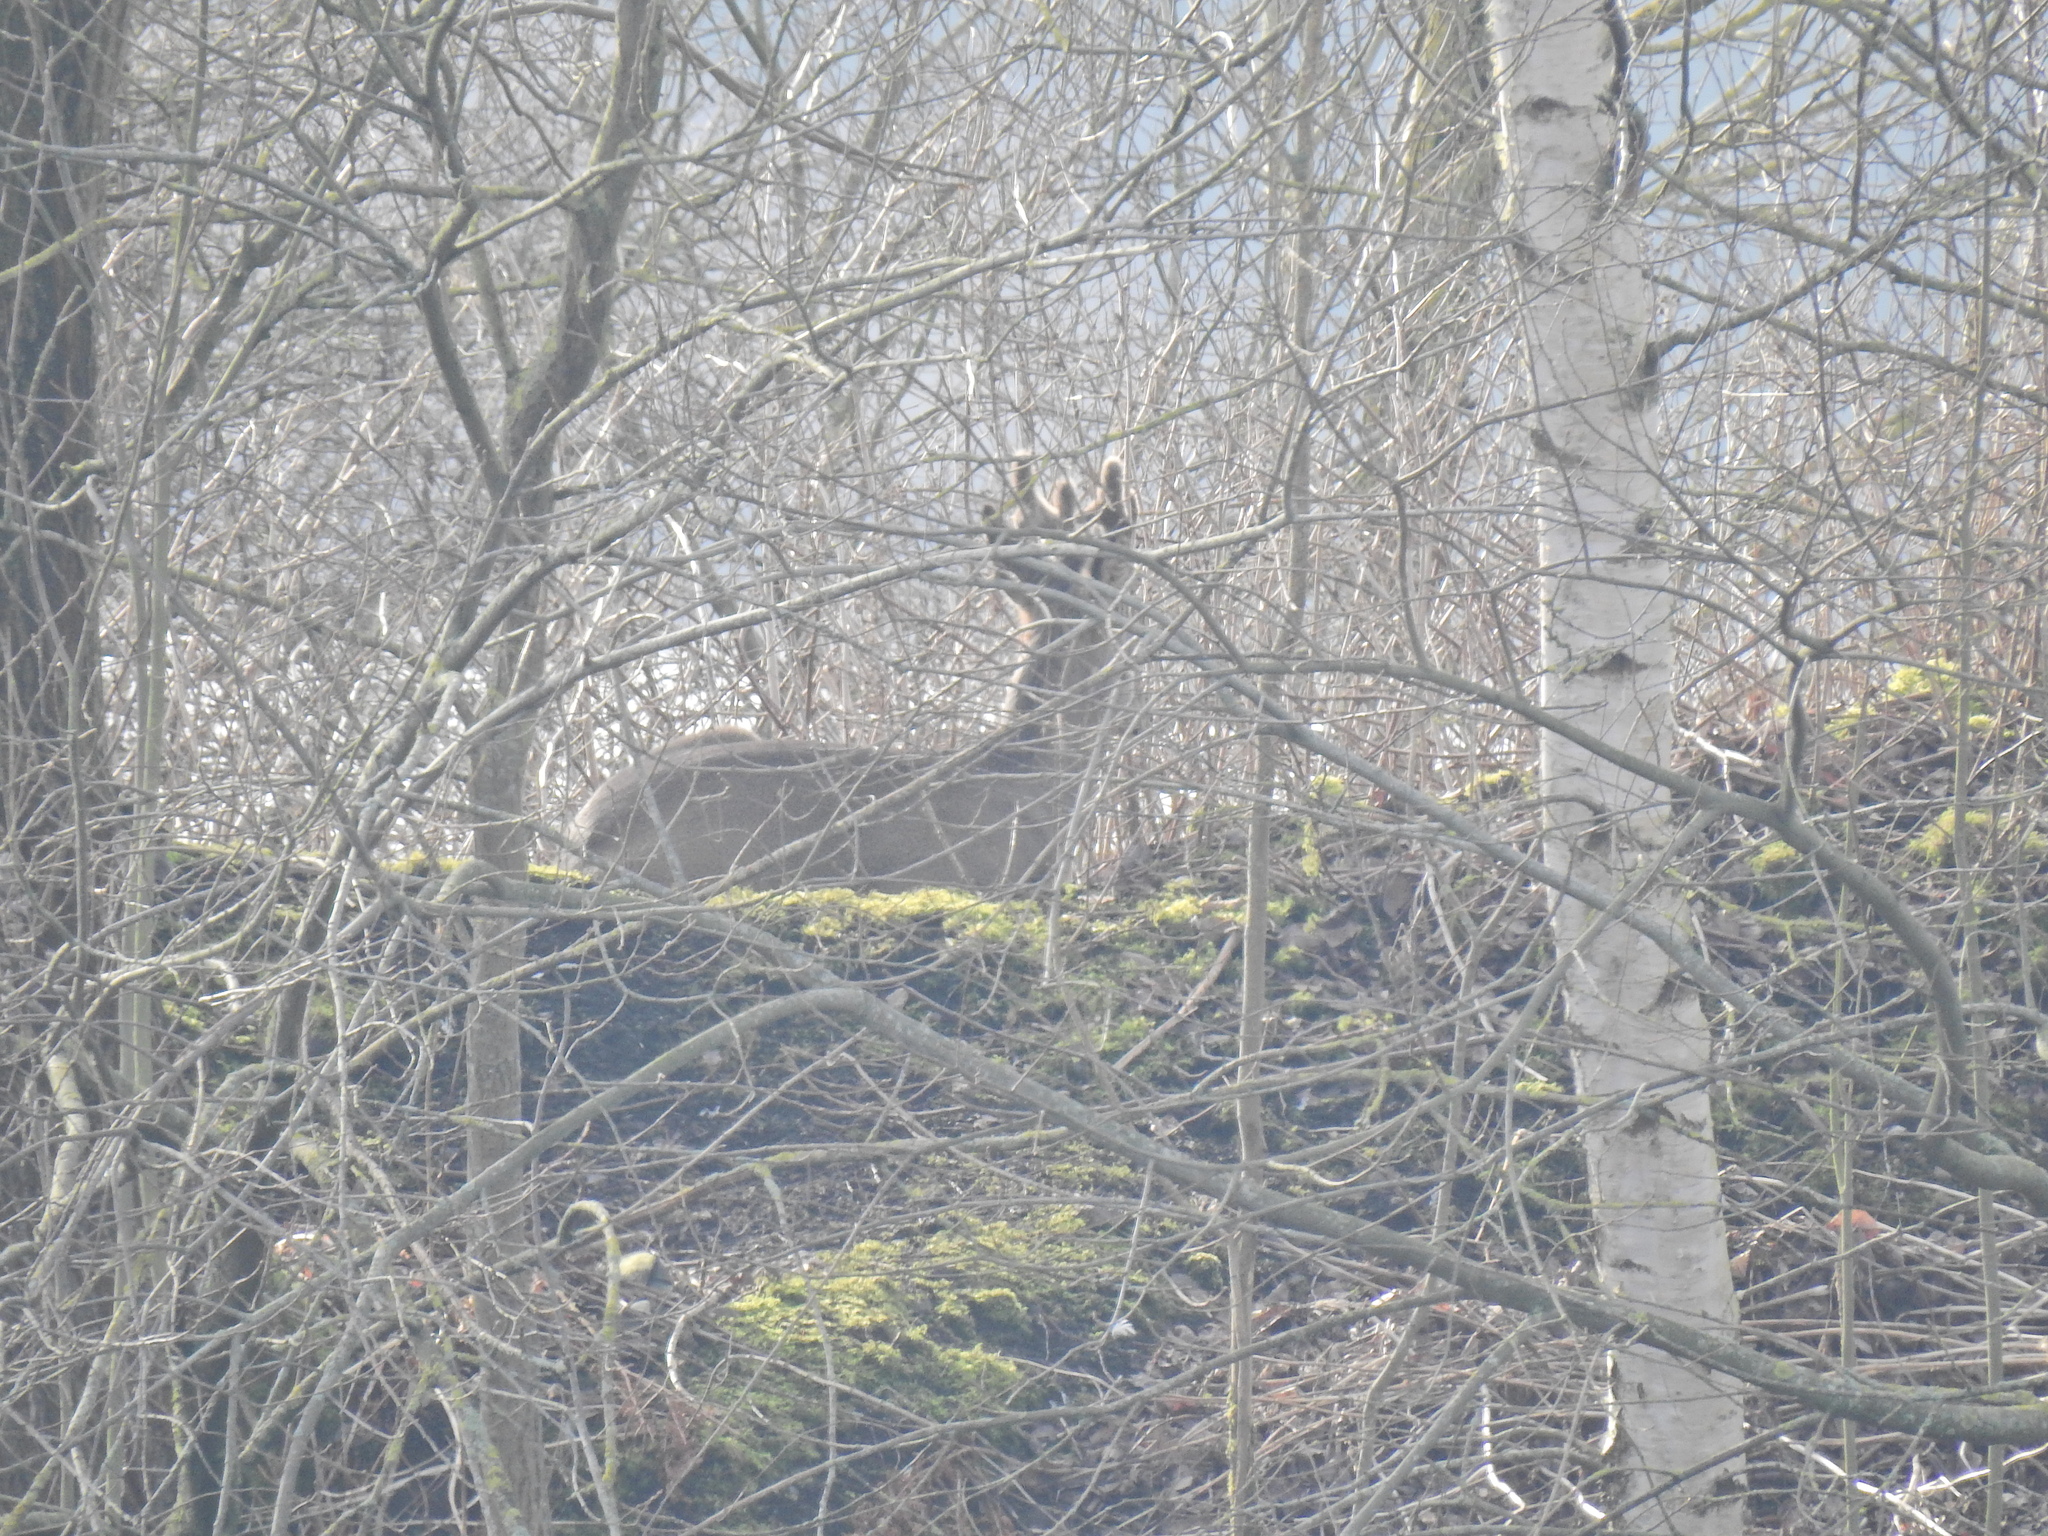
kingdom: Animalia
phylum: Chordata
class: Mammalia
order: Artiodactyla
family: Cervidae
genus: Capreolus
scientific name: Capreolus capreolus
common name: Western roe deer
